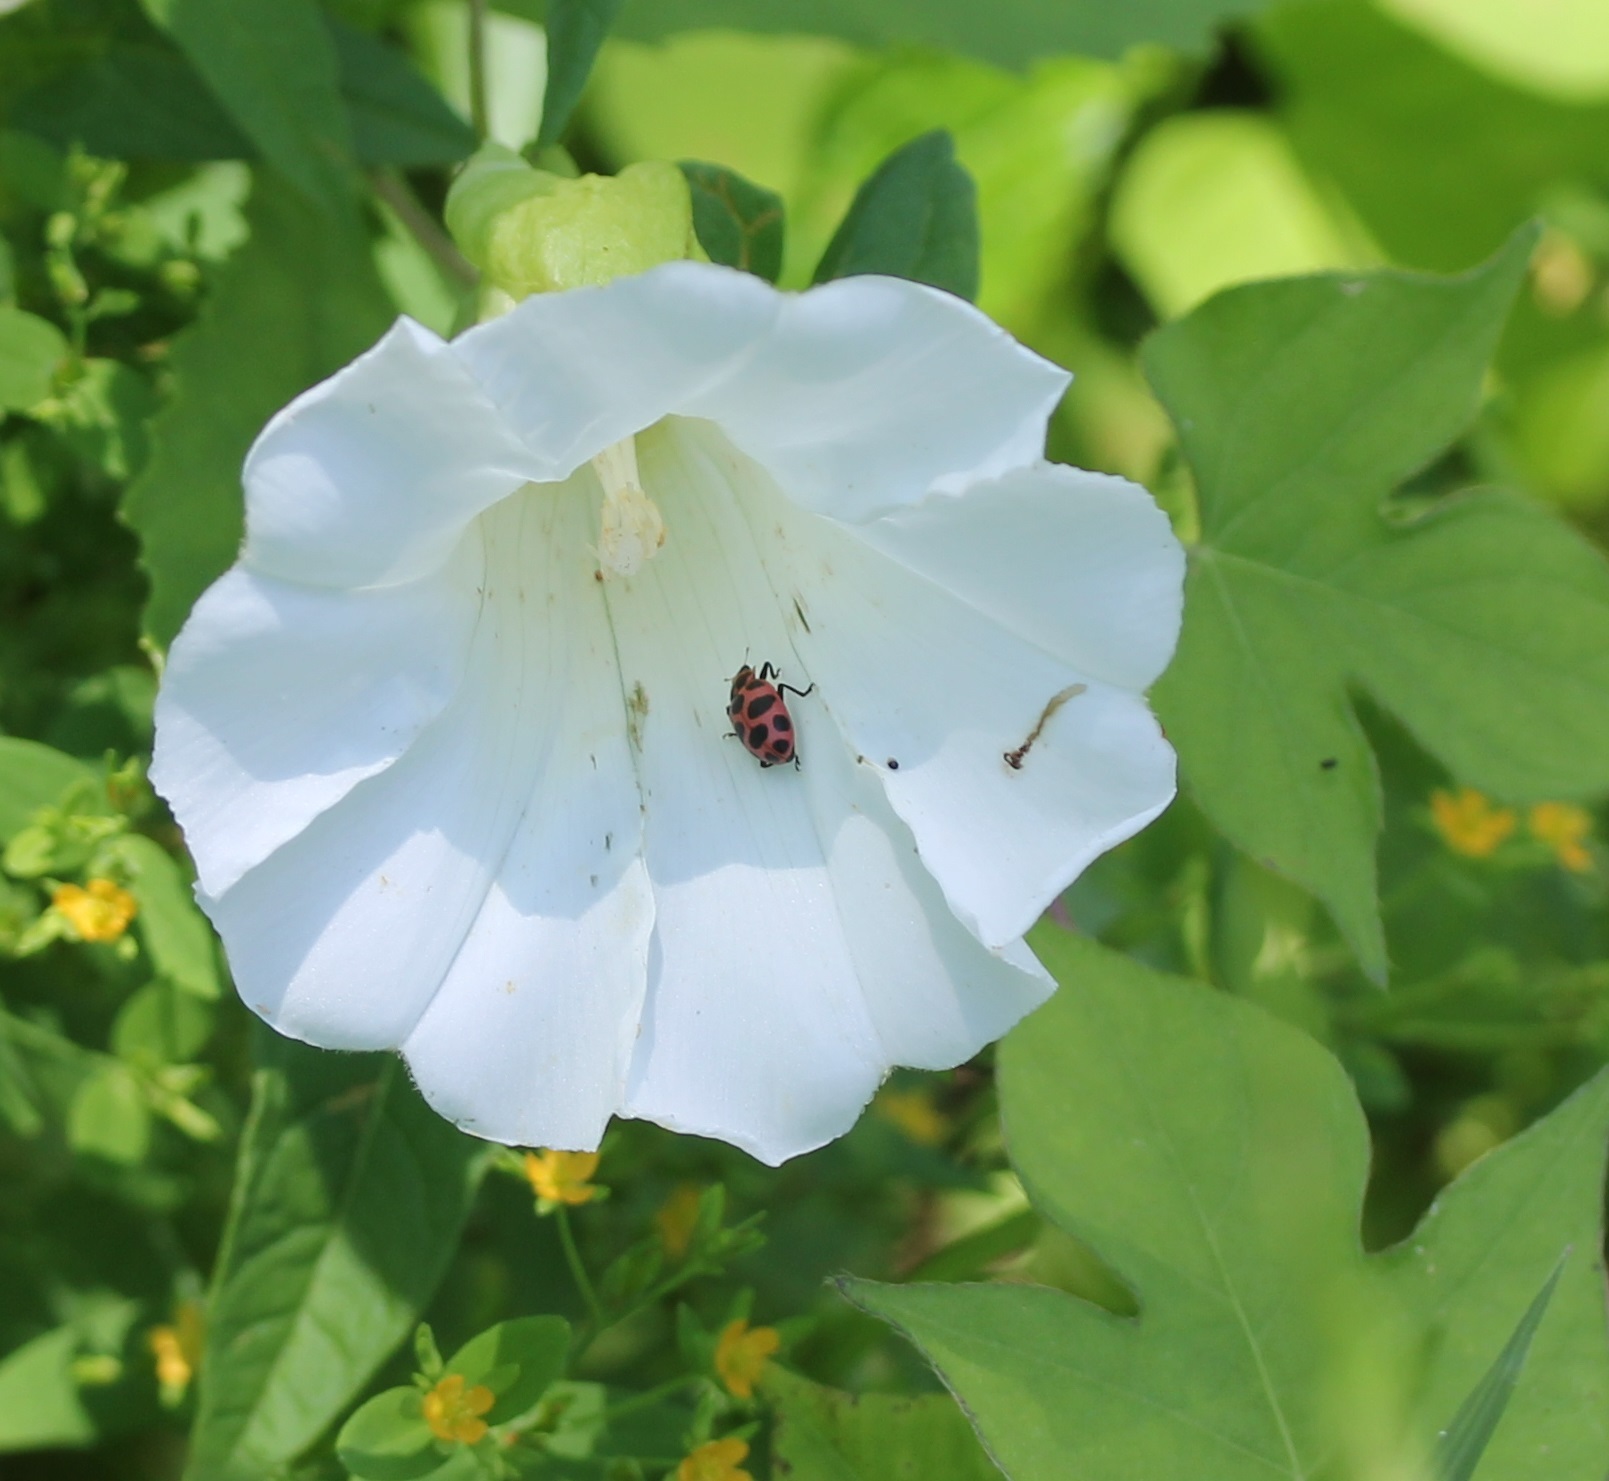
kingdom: Animalia
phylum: Arthropoda
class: Insecta
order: Coleoptera
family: Coccinellidae
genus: Coleomegilla
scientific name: Coleomegilla maculata
